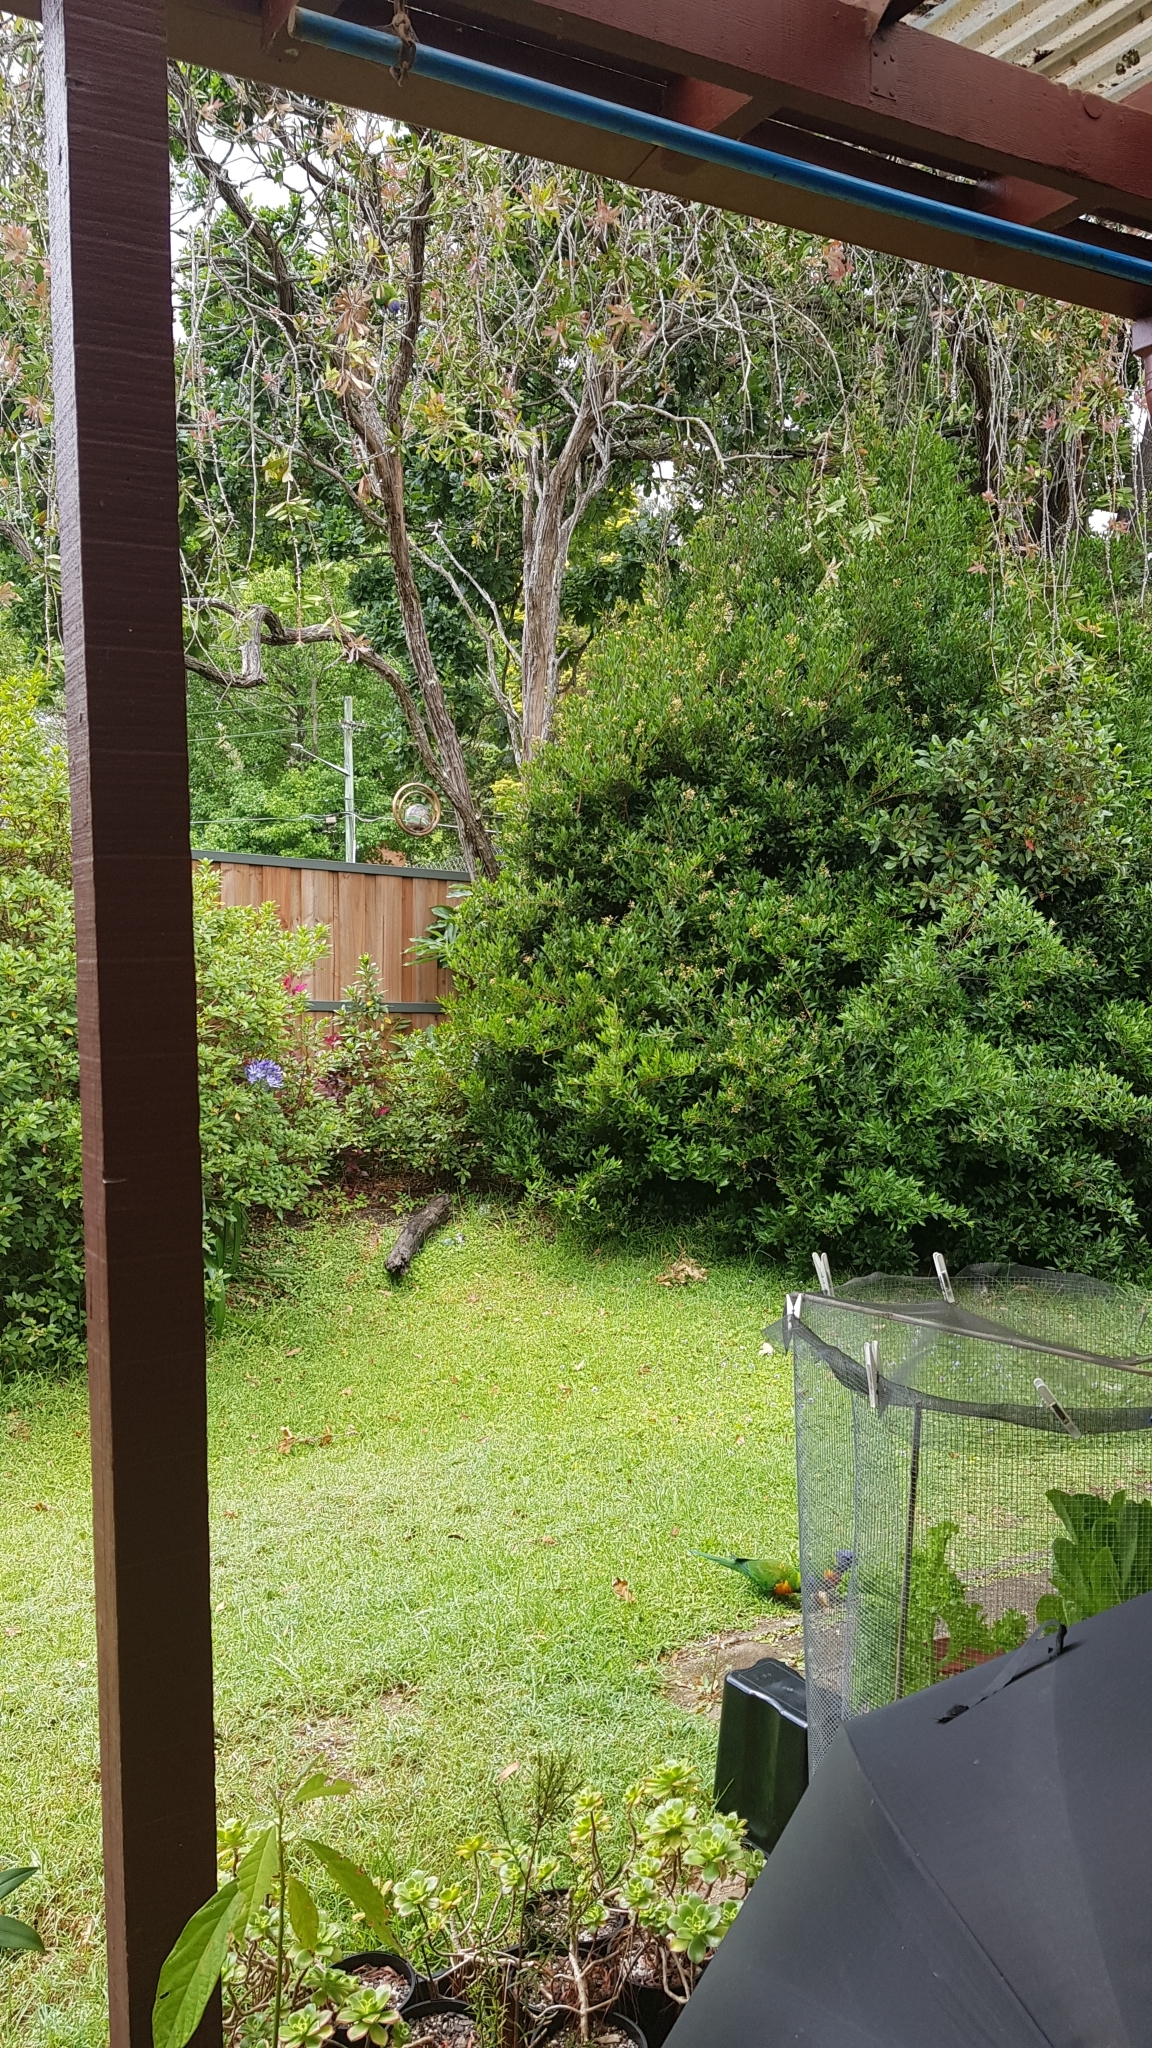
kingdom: Animalia
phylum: Chordata
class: Aves
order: Psittaciformes
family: Psittacidae
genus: Trichoglossus
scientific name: Trichoglossus haematodus
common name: Coconut lorikeet
